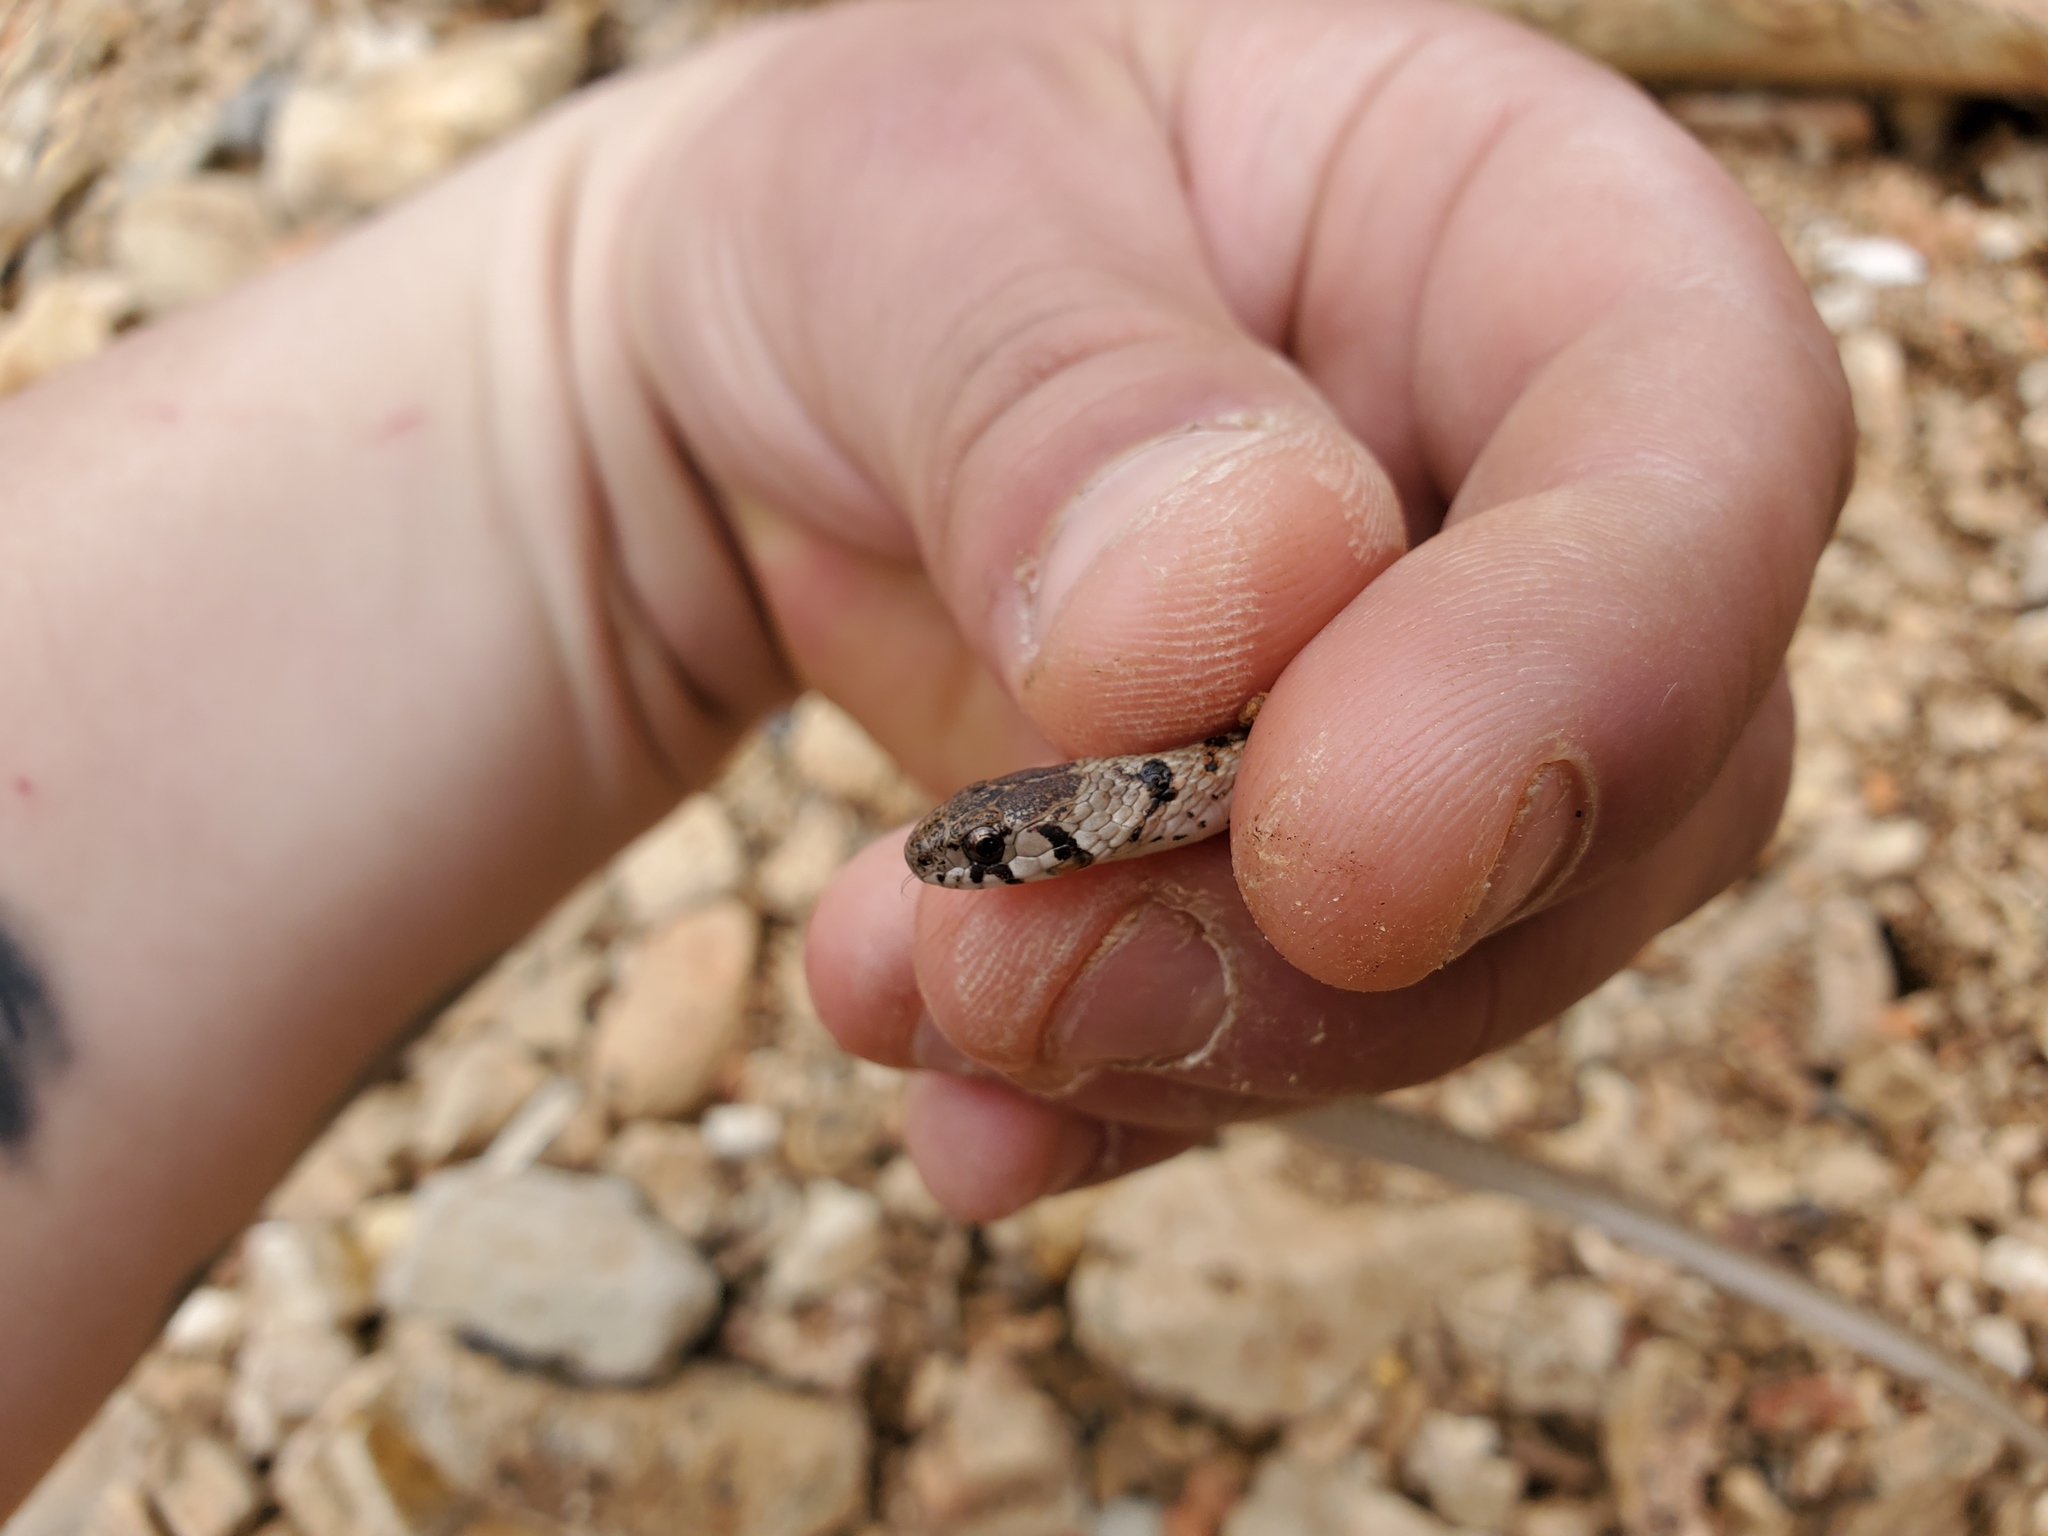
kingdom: Animalia
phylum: Chordata
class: Squamata
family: Colubridae
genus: Storeria
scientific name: Storeria dekayi
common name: (dekay’s) brown snake
